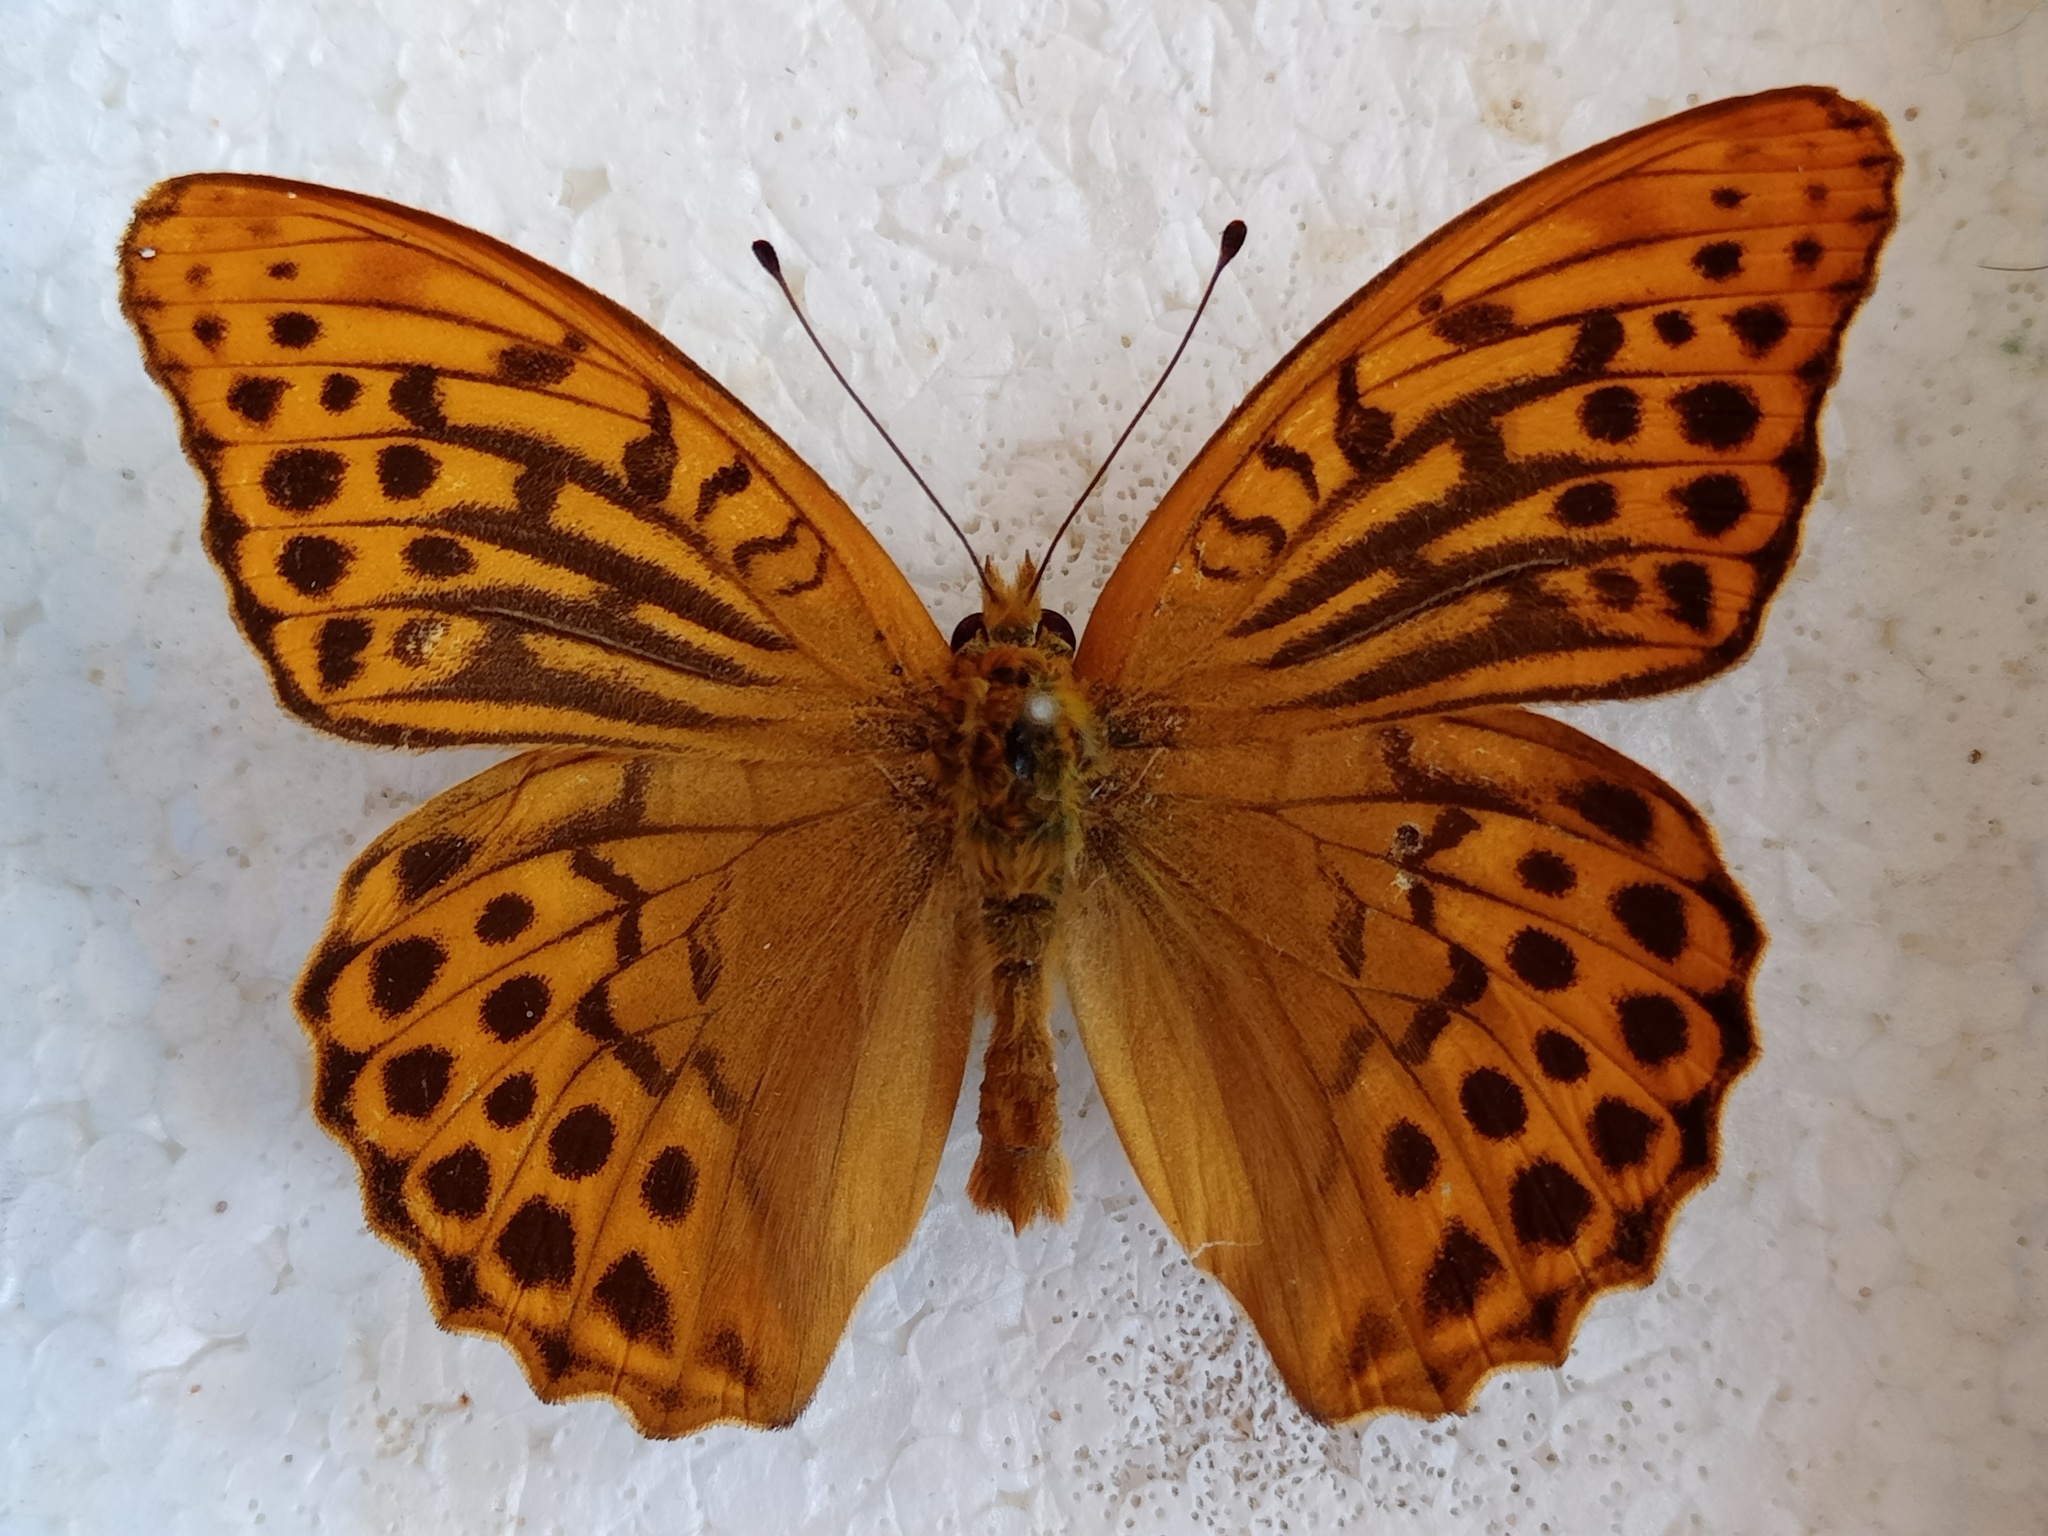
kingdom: Animalia
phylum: Arthropoda
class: Insecta
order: Lepidoptera
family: Nymphalidae
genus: Argynnis
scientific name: Argynnis paphia
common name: Silver-washed fritillary
